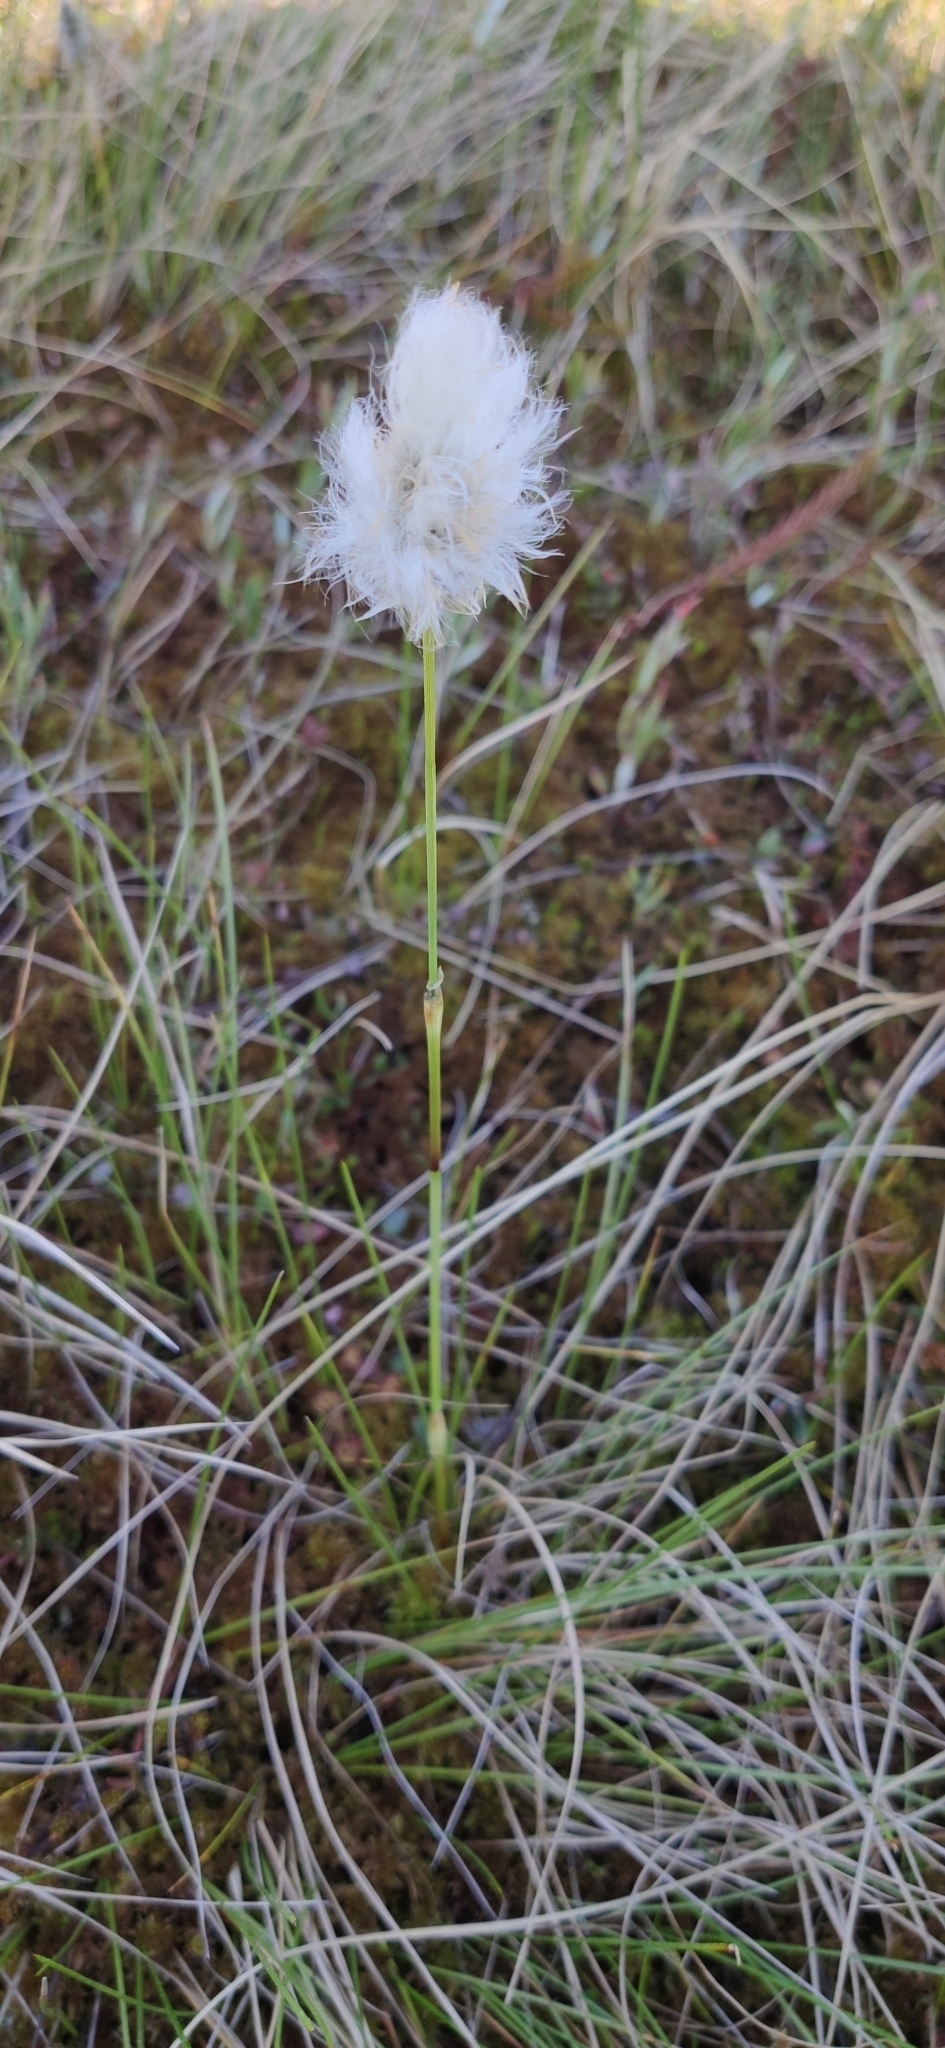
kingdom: Plantae
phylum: Tracheophyta
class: Liliopsida
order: Poales
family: Cyperaceae
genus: Eriophorum
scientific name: Eriophorum vaginatum
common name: Hare's-tail cottongrass
